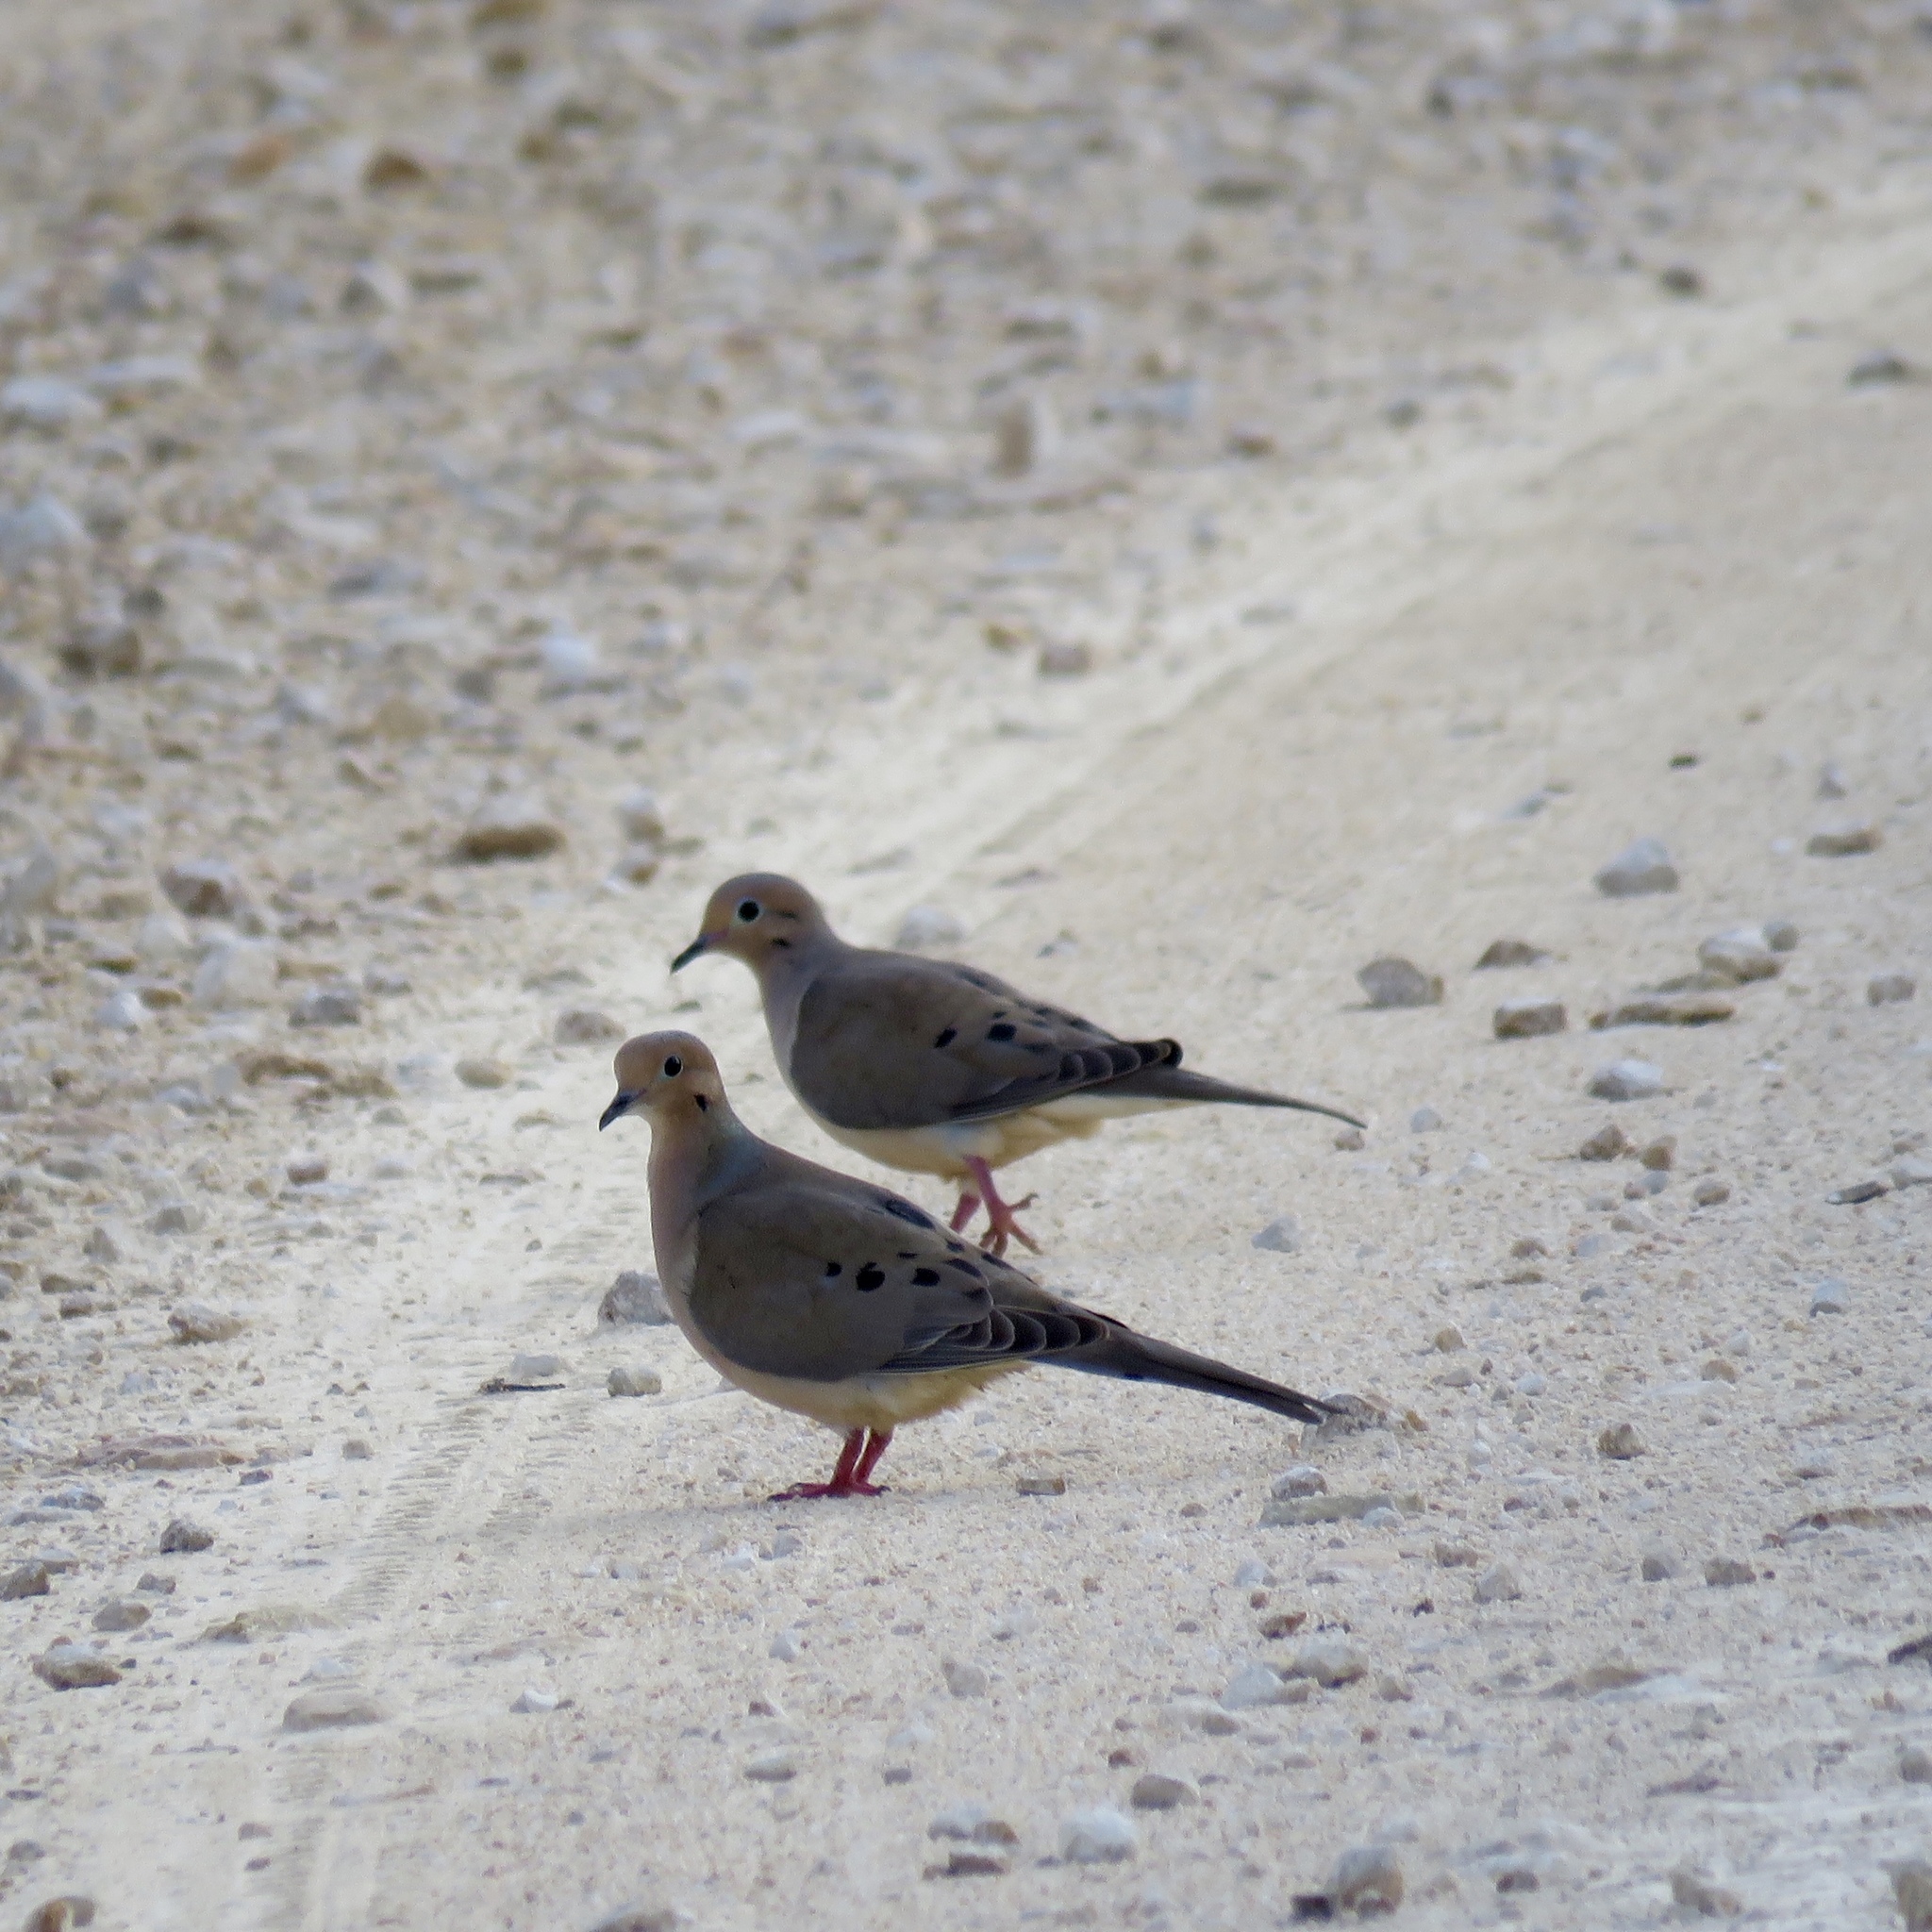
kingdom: Animalia
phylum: Chordata
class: Aves
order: Columbiformes
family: Columbidae
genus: Zenaida
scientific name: Zenaida macroura
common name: Mourning dove
